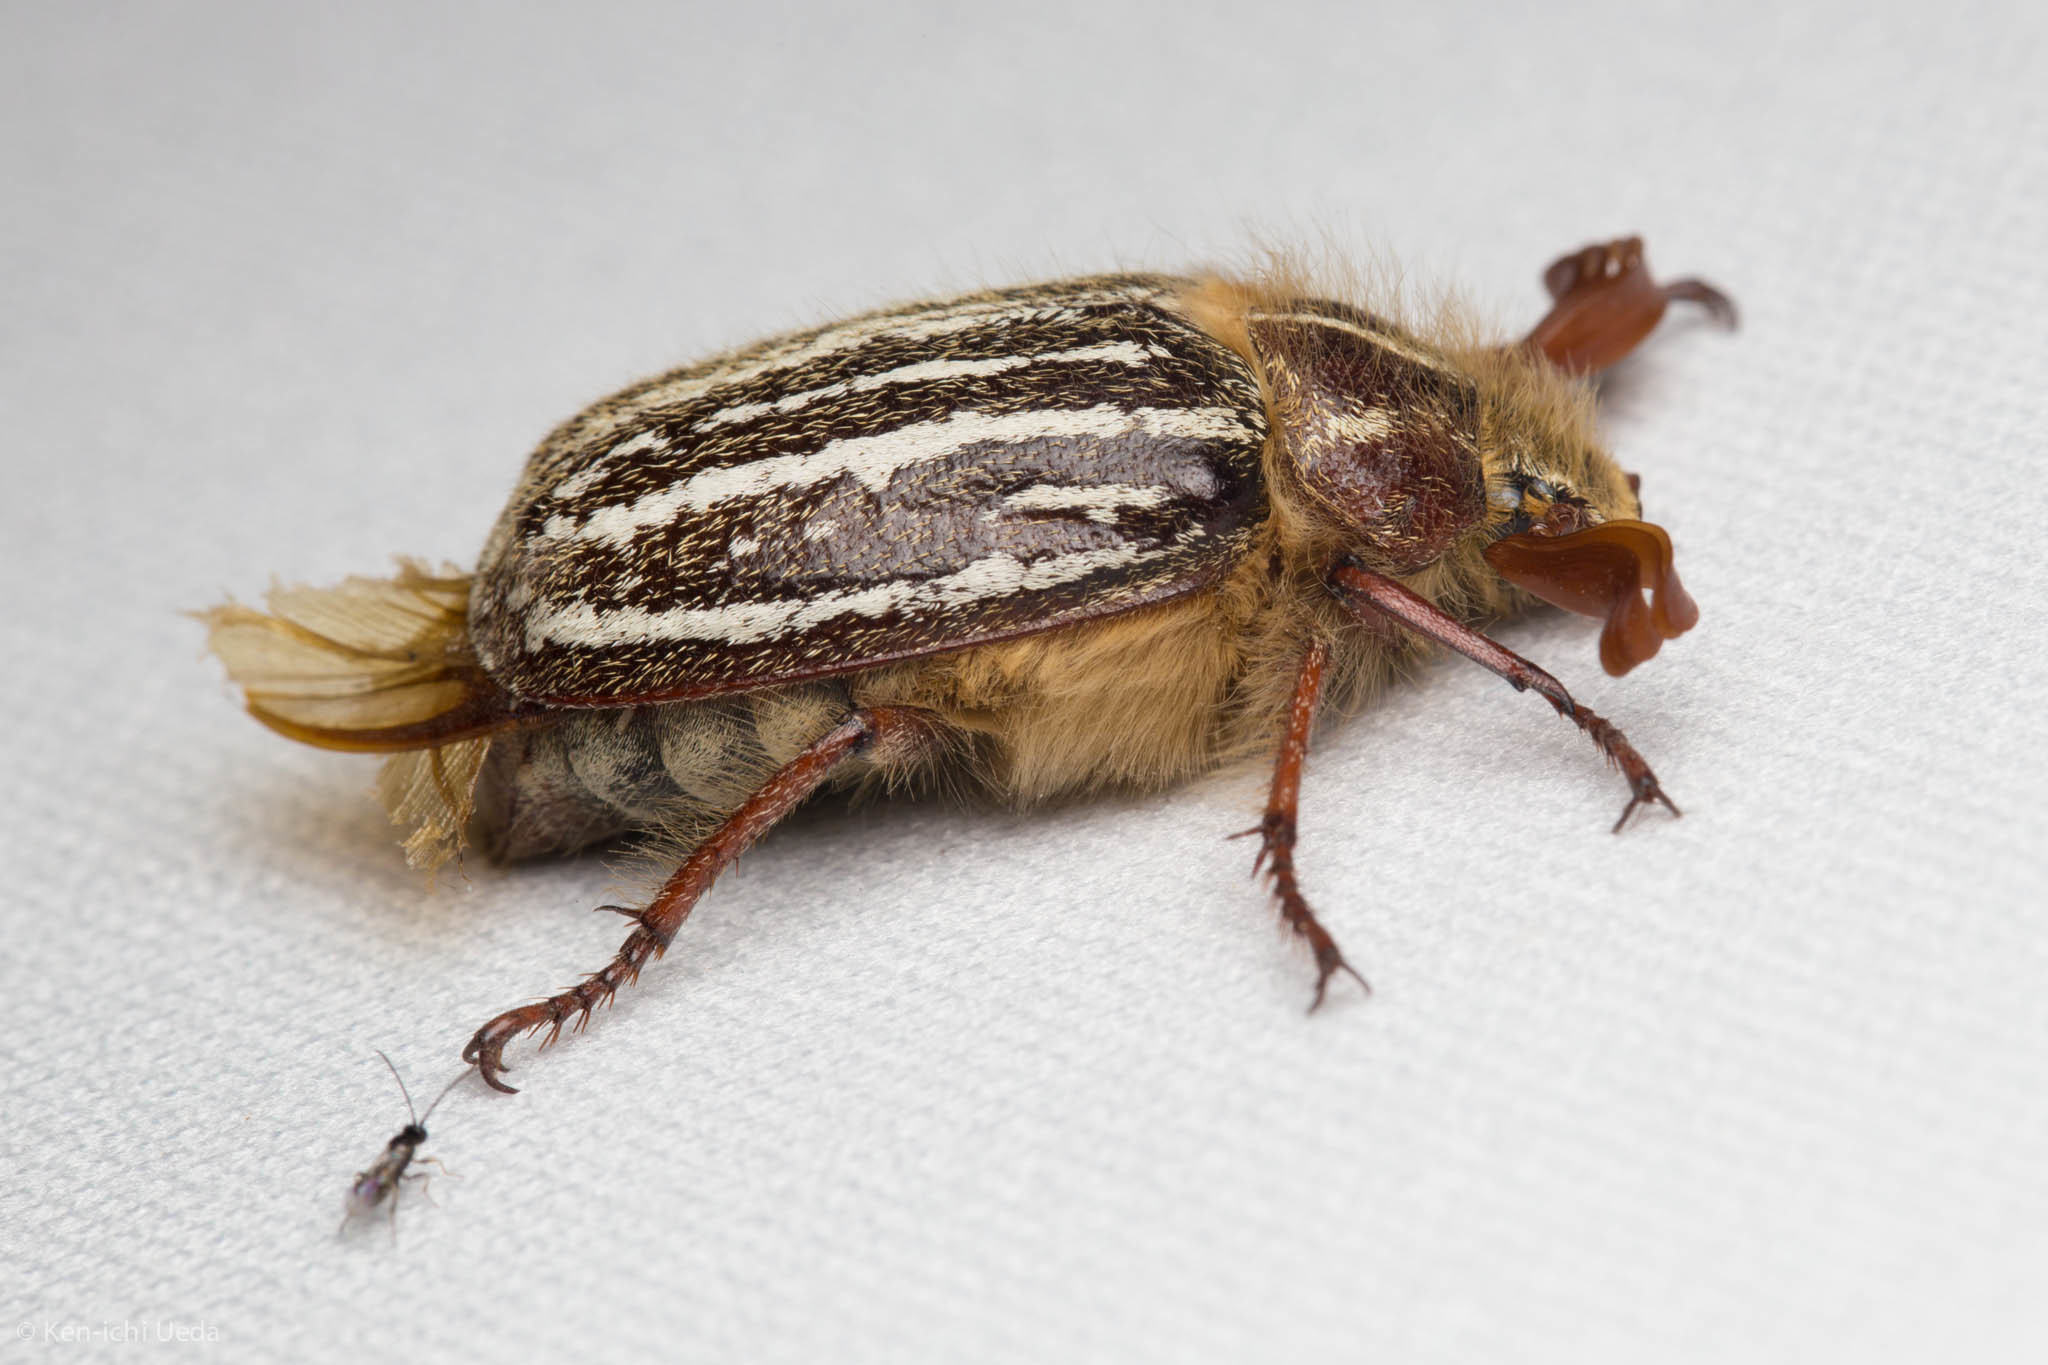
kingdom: Animalia
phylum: Arthropoda
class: Insecta
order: Coleoptera
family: Scarabaeidae
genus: Polyphylla
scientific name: Polyphylla barbata
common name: Mount hermon june beetle
